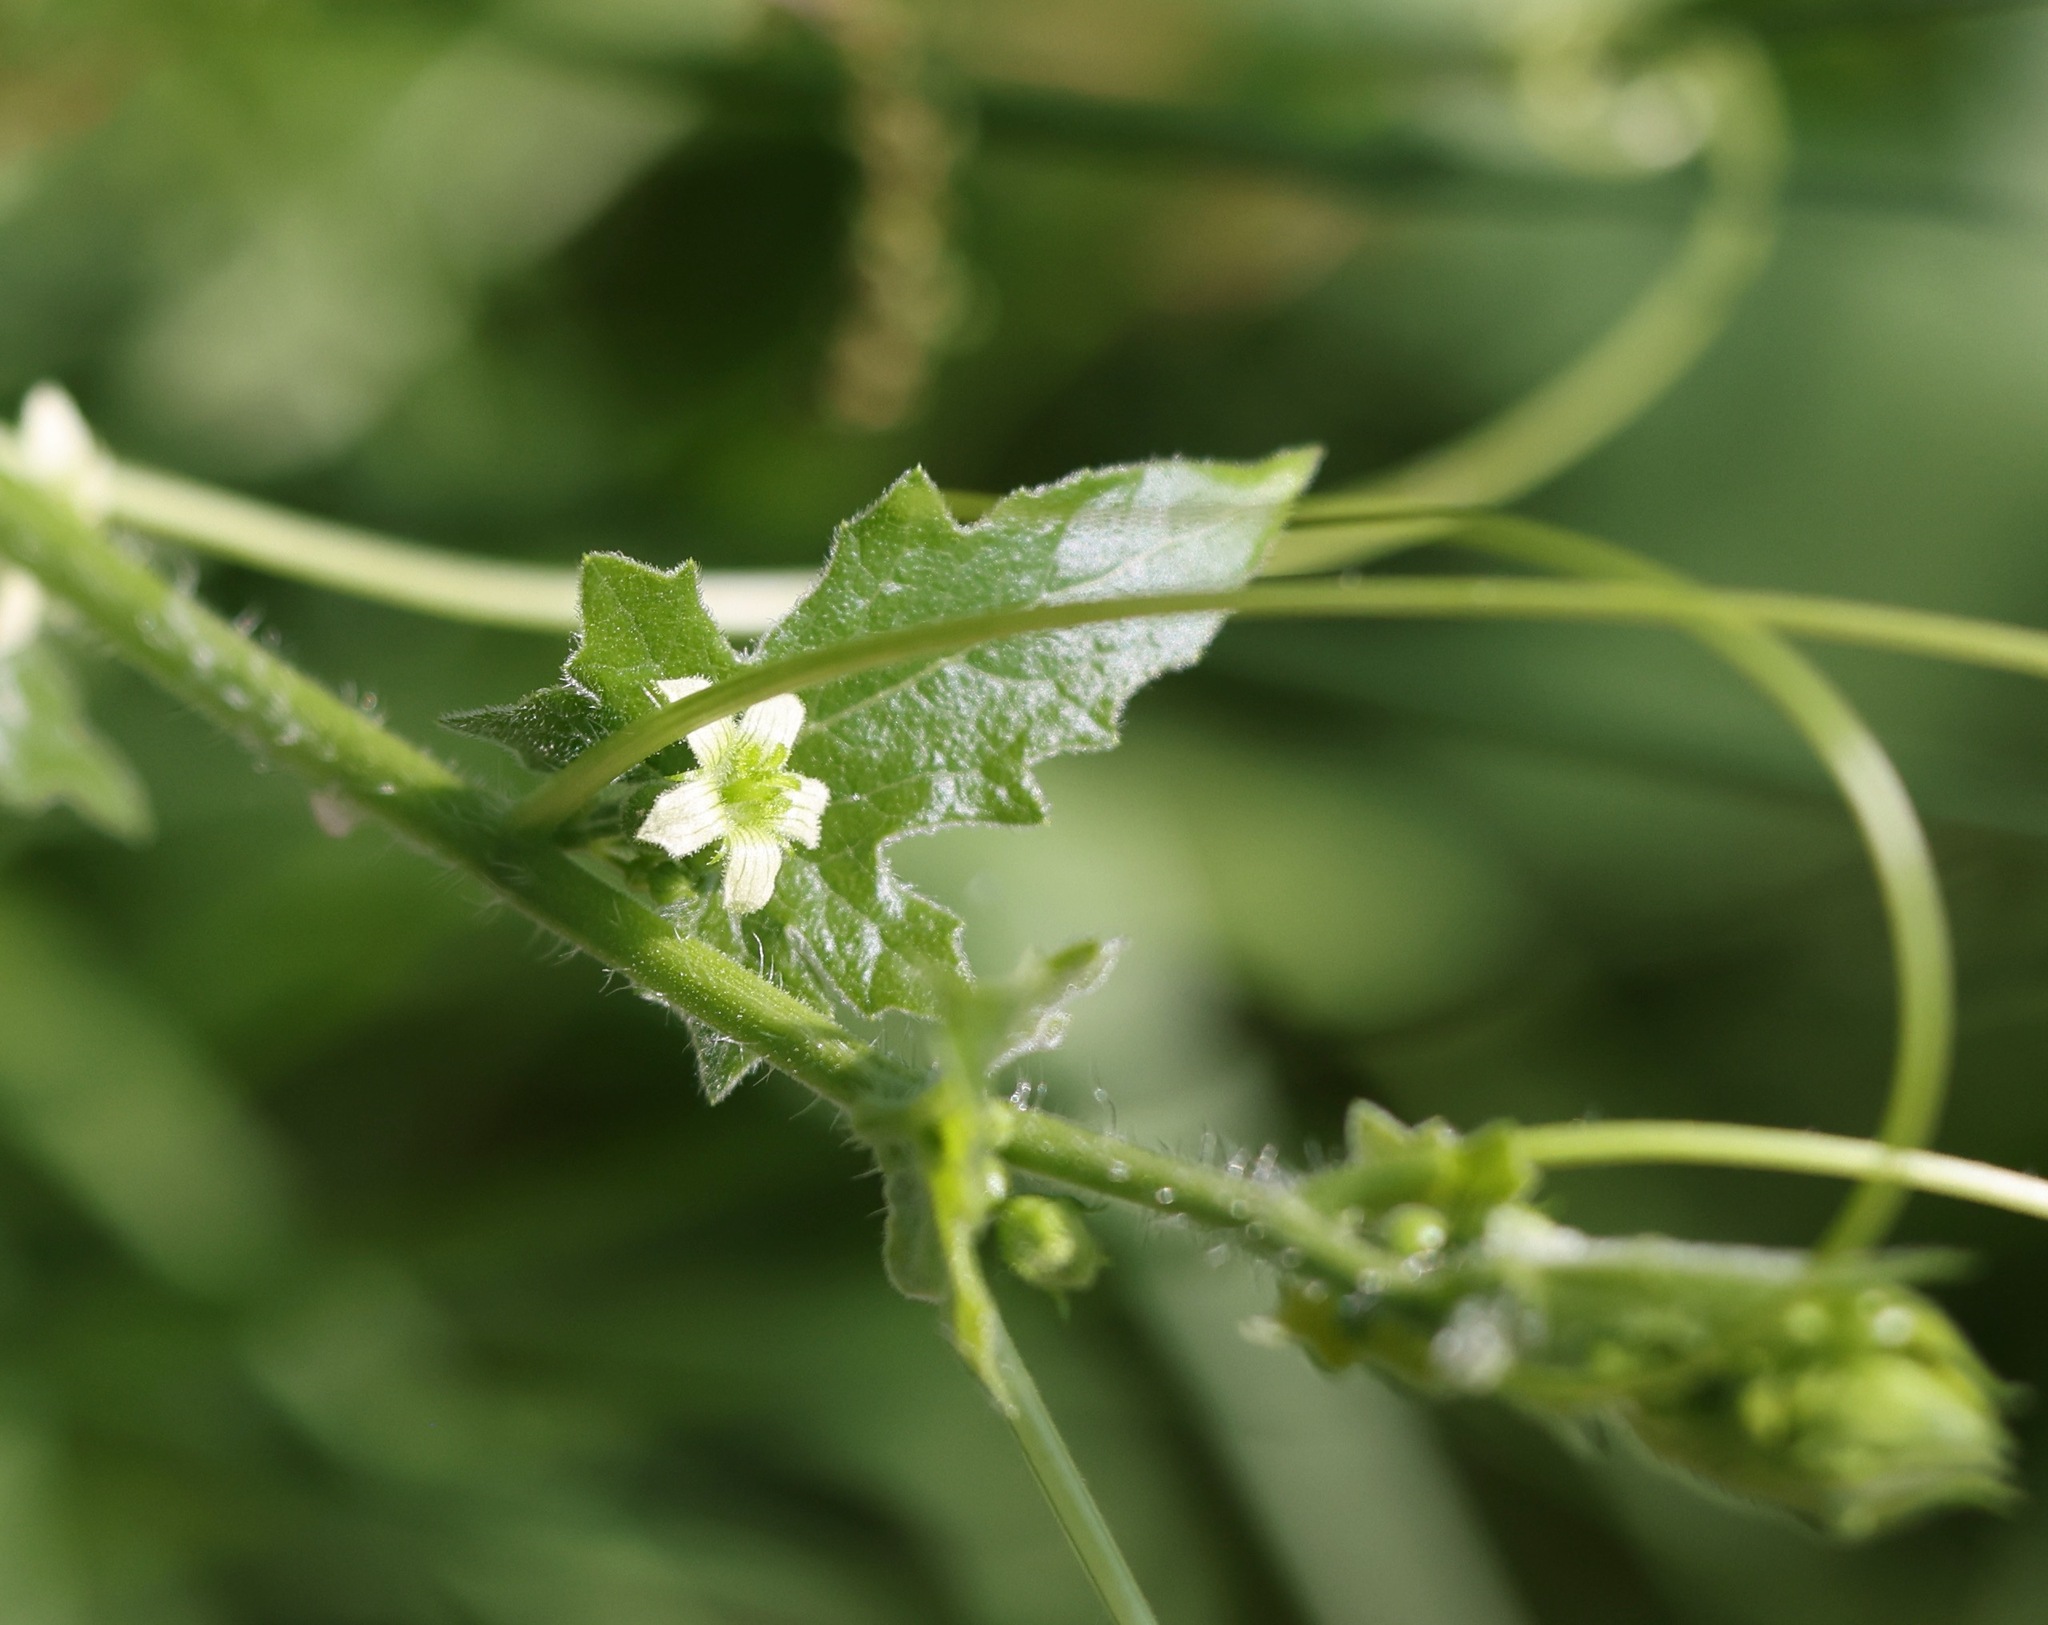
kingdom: Plantae
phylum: Tracheophyta
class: Magnoliopsida
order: Cucurbitales
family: Cucurbitaceae
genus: Bryonia
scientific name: Bryonia cretica
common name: Cretan bryony
